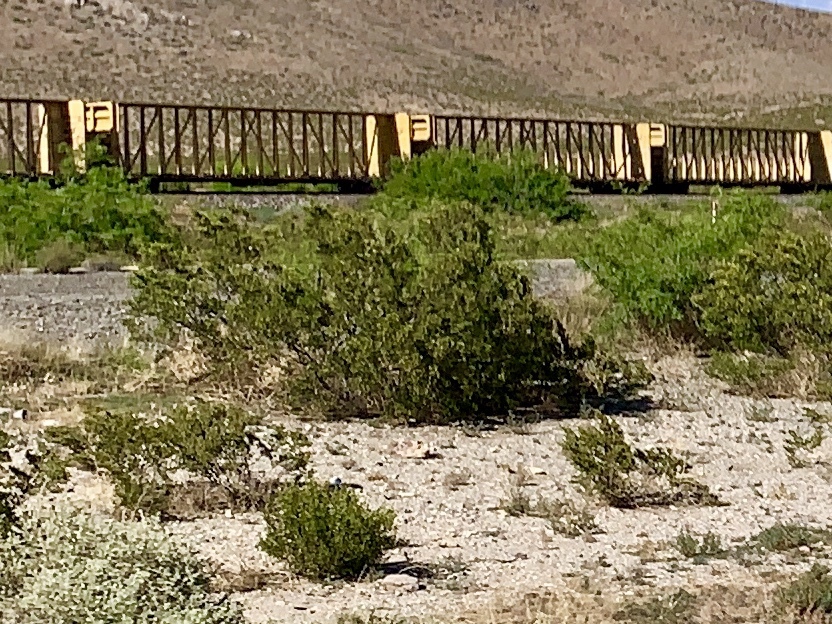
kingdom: Plantae
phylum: Tracheophyta
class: Magnoliopsida
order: Zygophyllales
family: Zygophyllaceae
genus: Larrea
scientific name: Larrea tridentata
